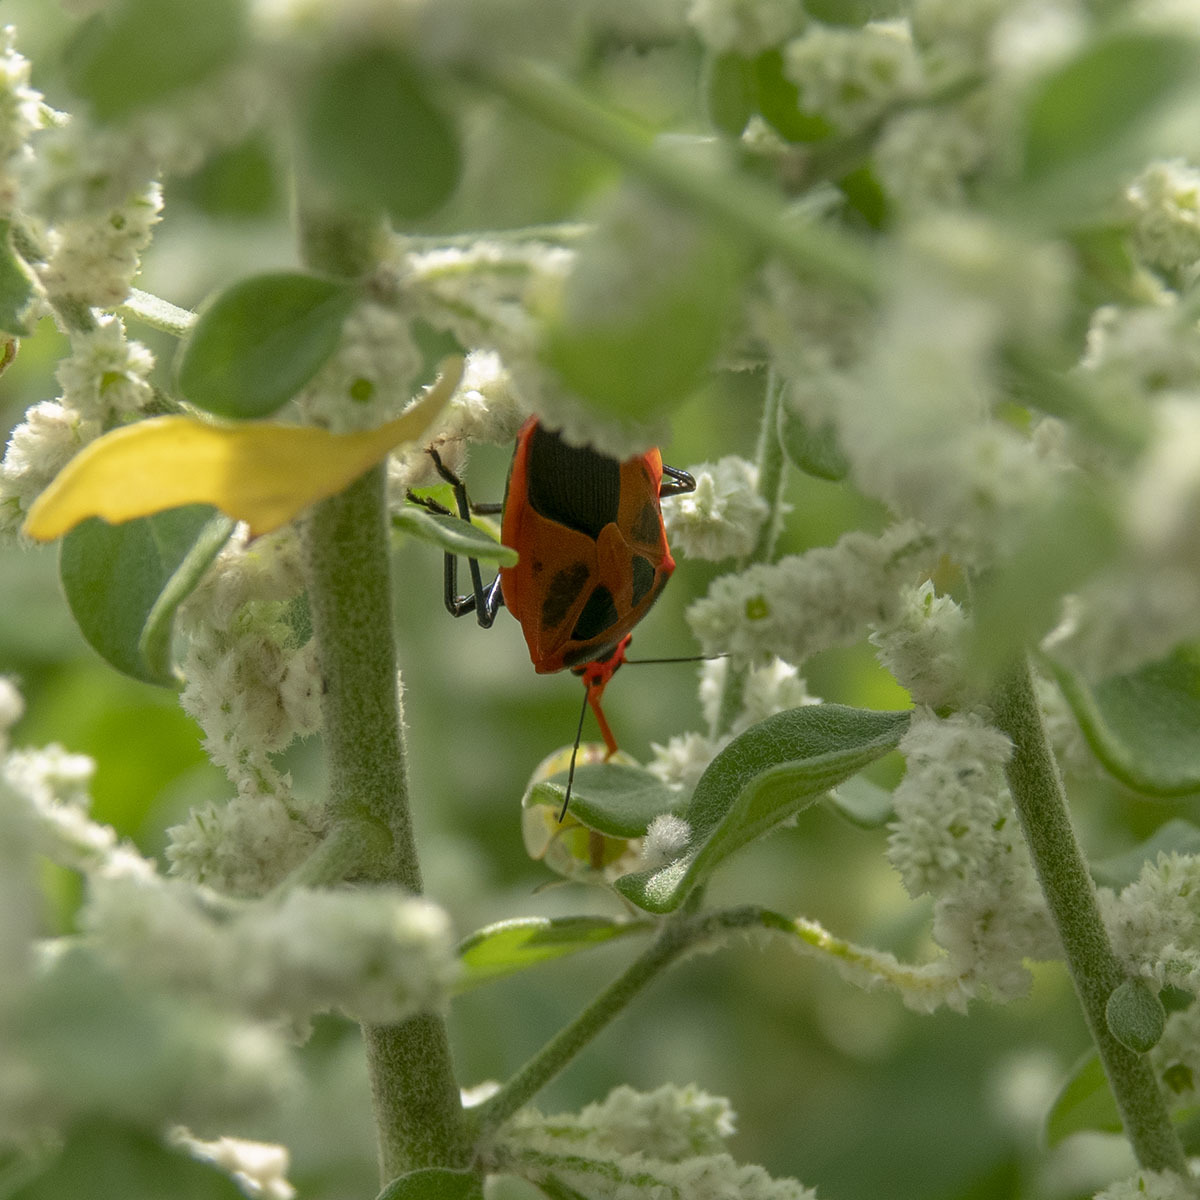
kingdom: Animalia
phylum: Arthropoda
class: Insecta
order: Hemiptera
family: Pentatomidae
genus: Amyotea
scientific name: Amyotea malabarica
